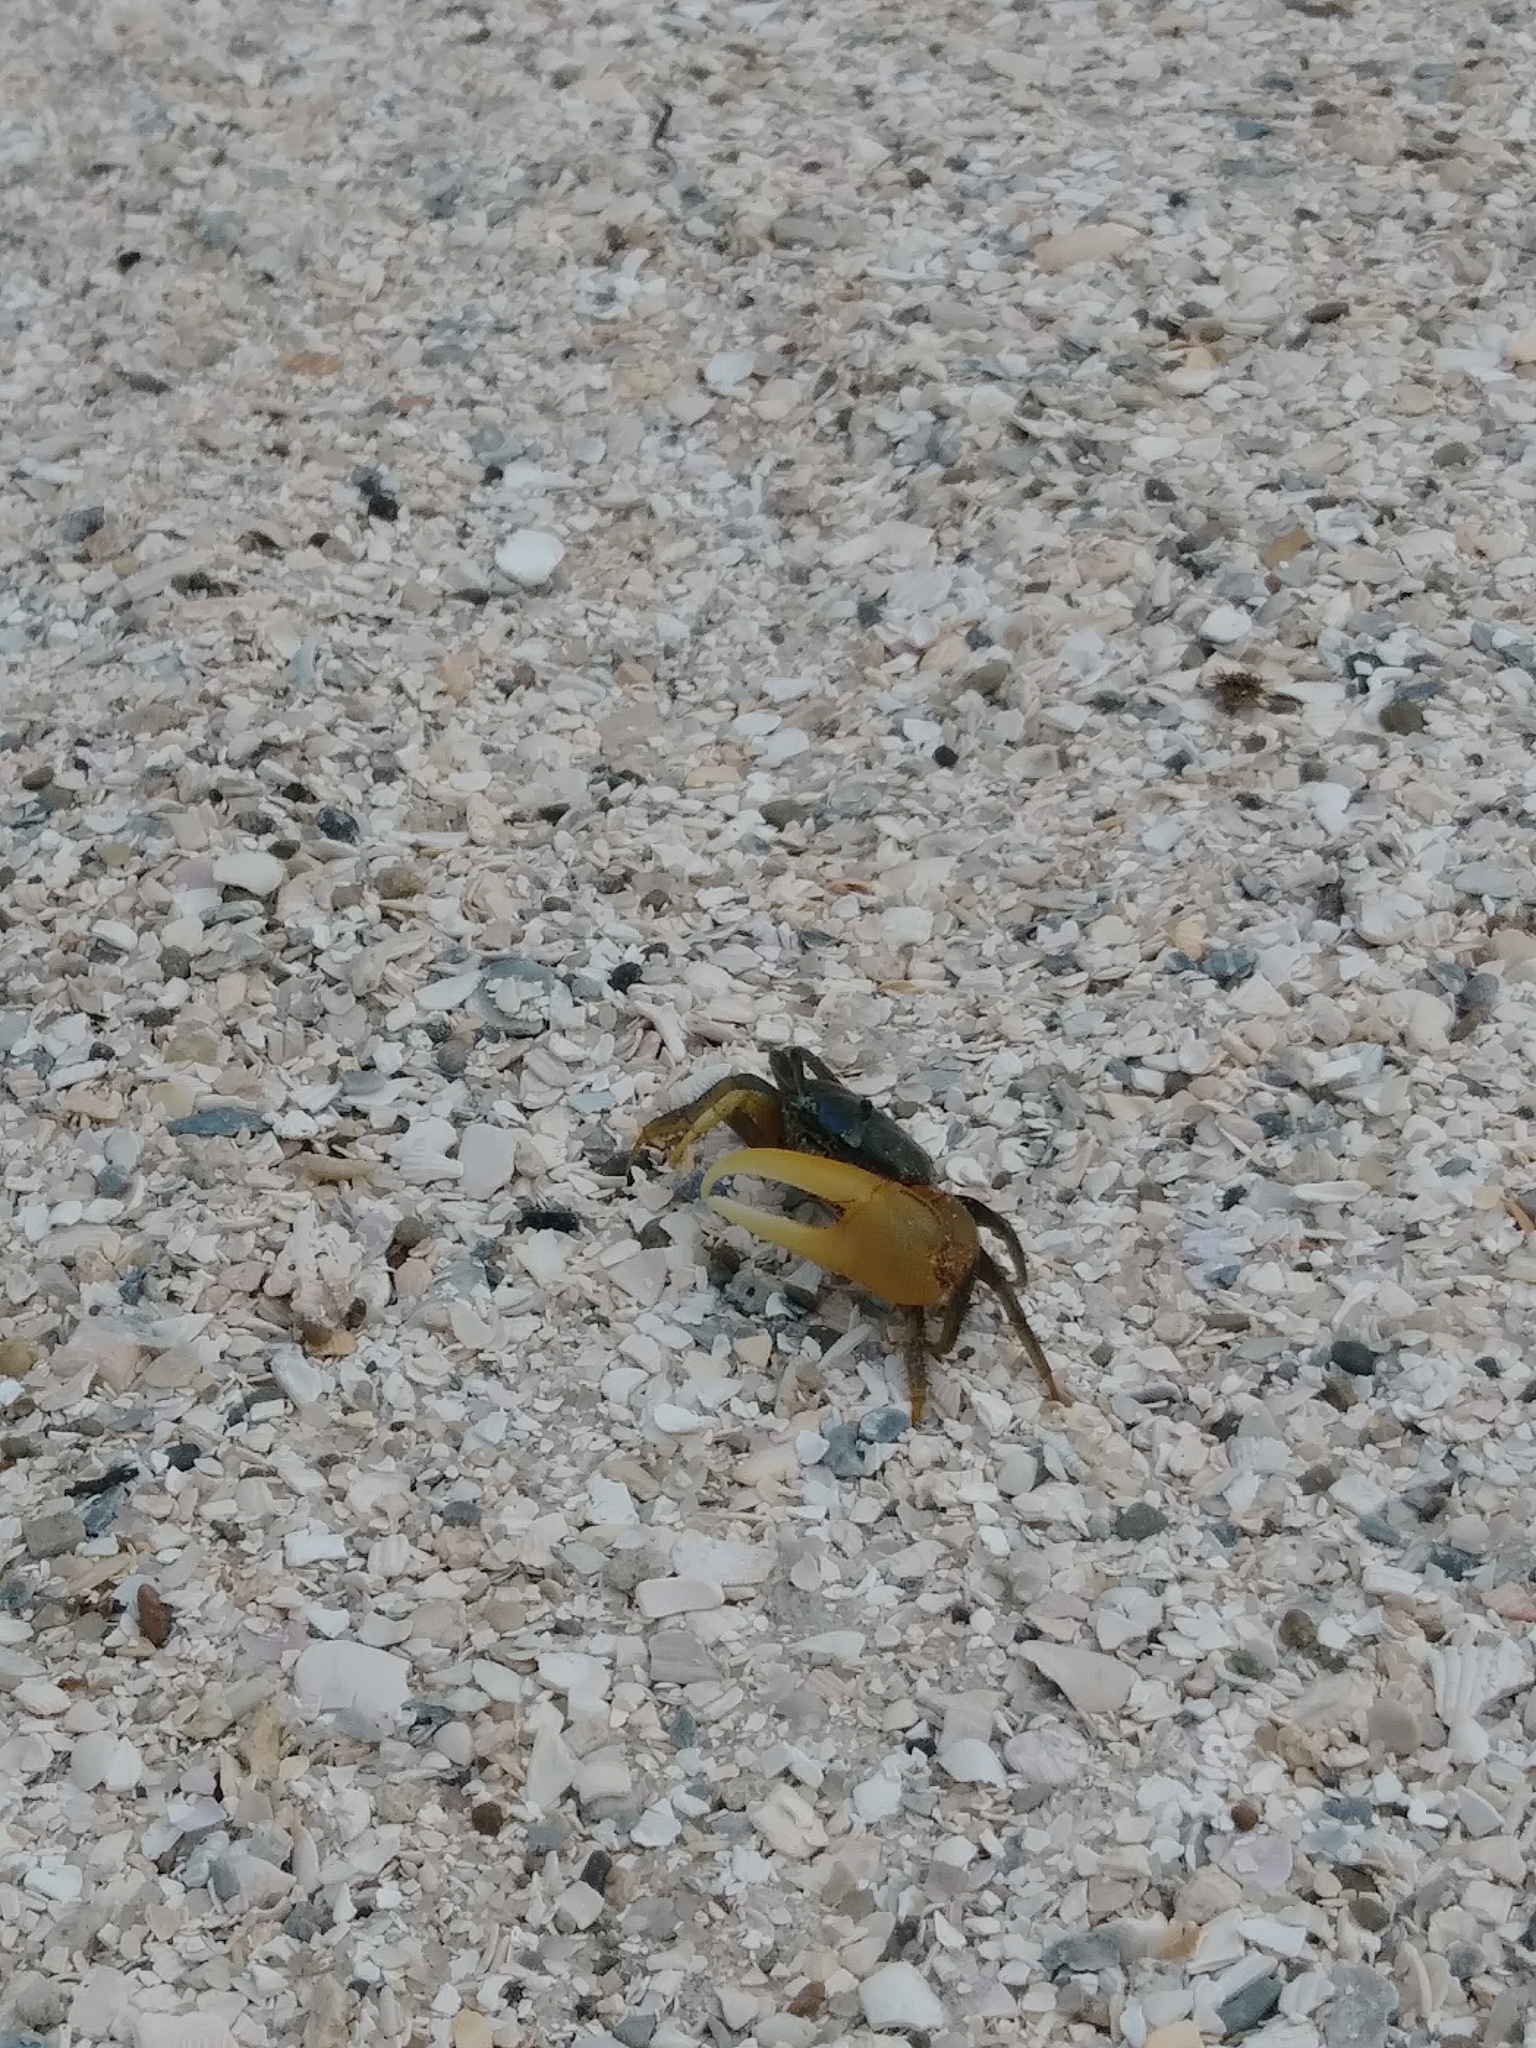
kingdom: Animalia
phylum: Arthropoda
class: Malacostraca
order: Decapoda
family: Ocypodidae
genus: Minuca
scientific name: Minuca pugnax
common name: Mud fiddler crab
